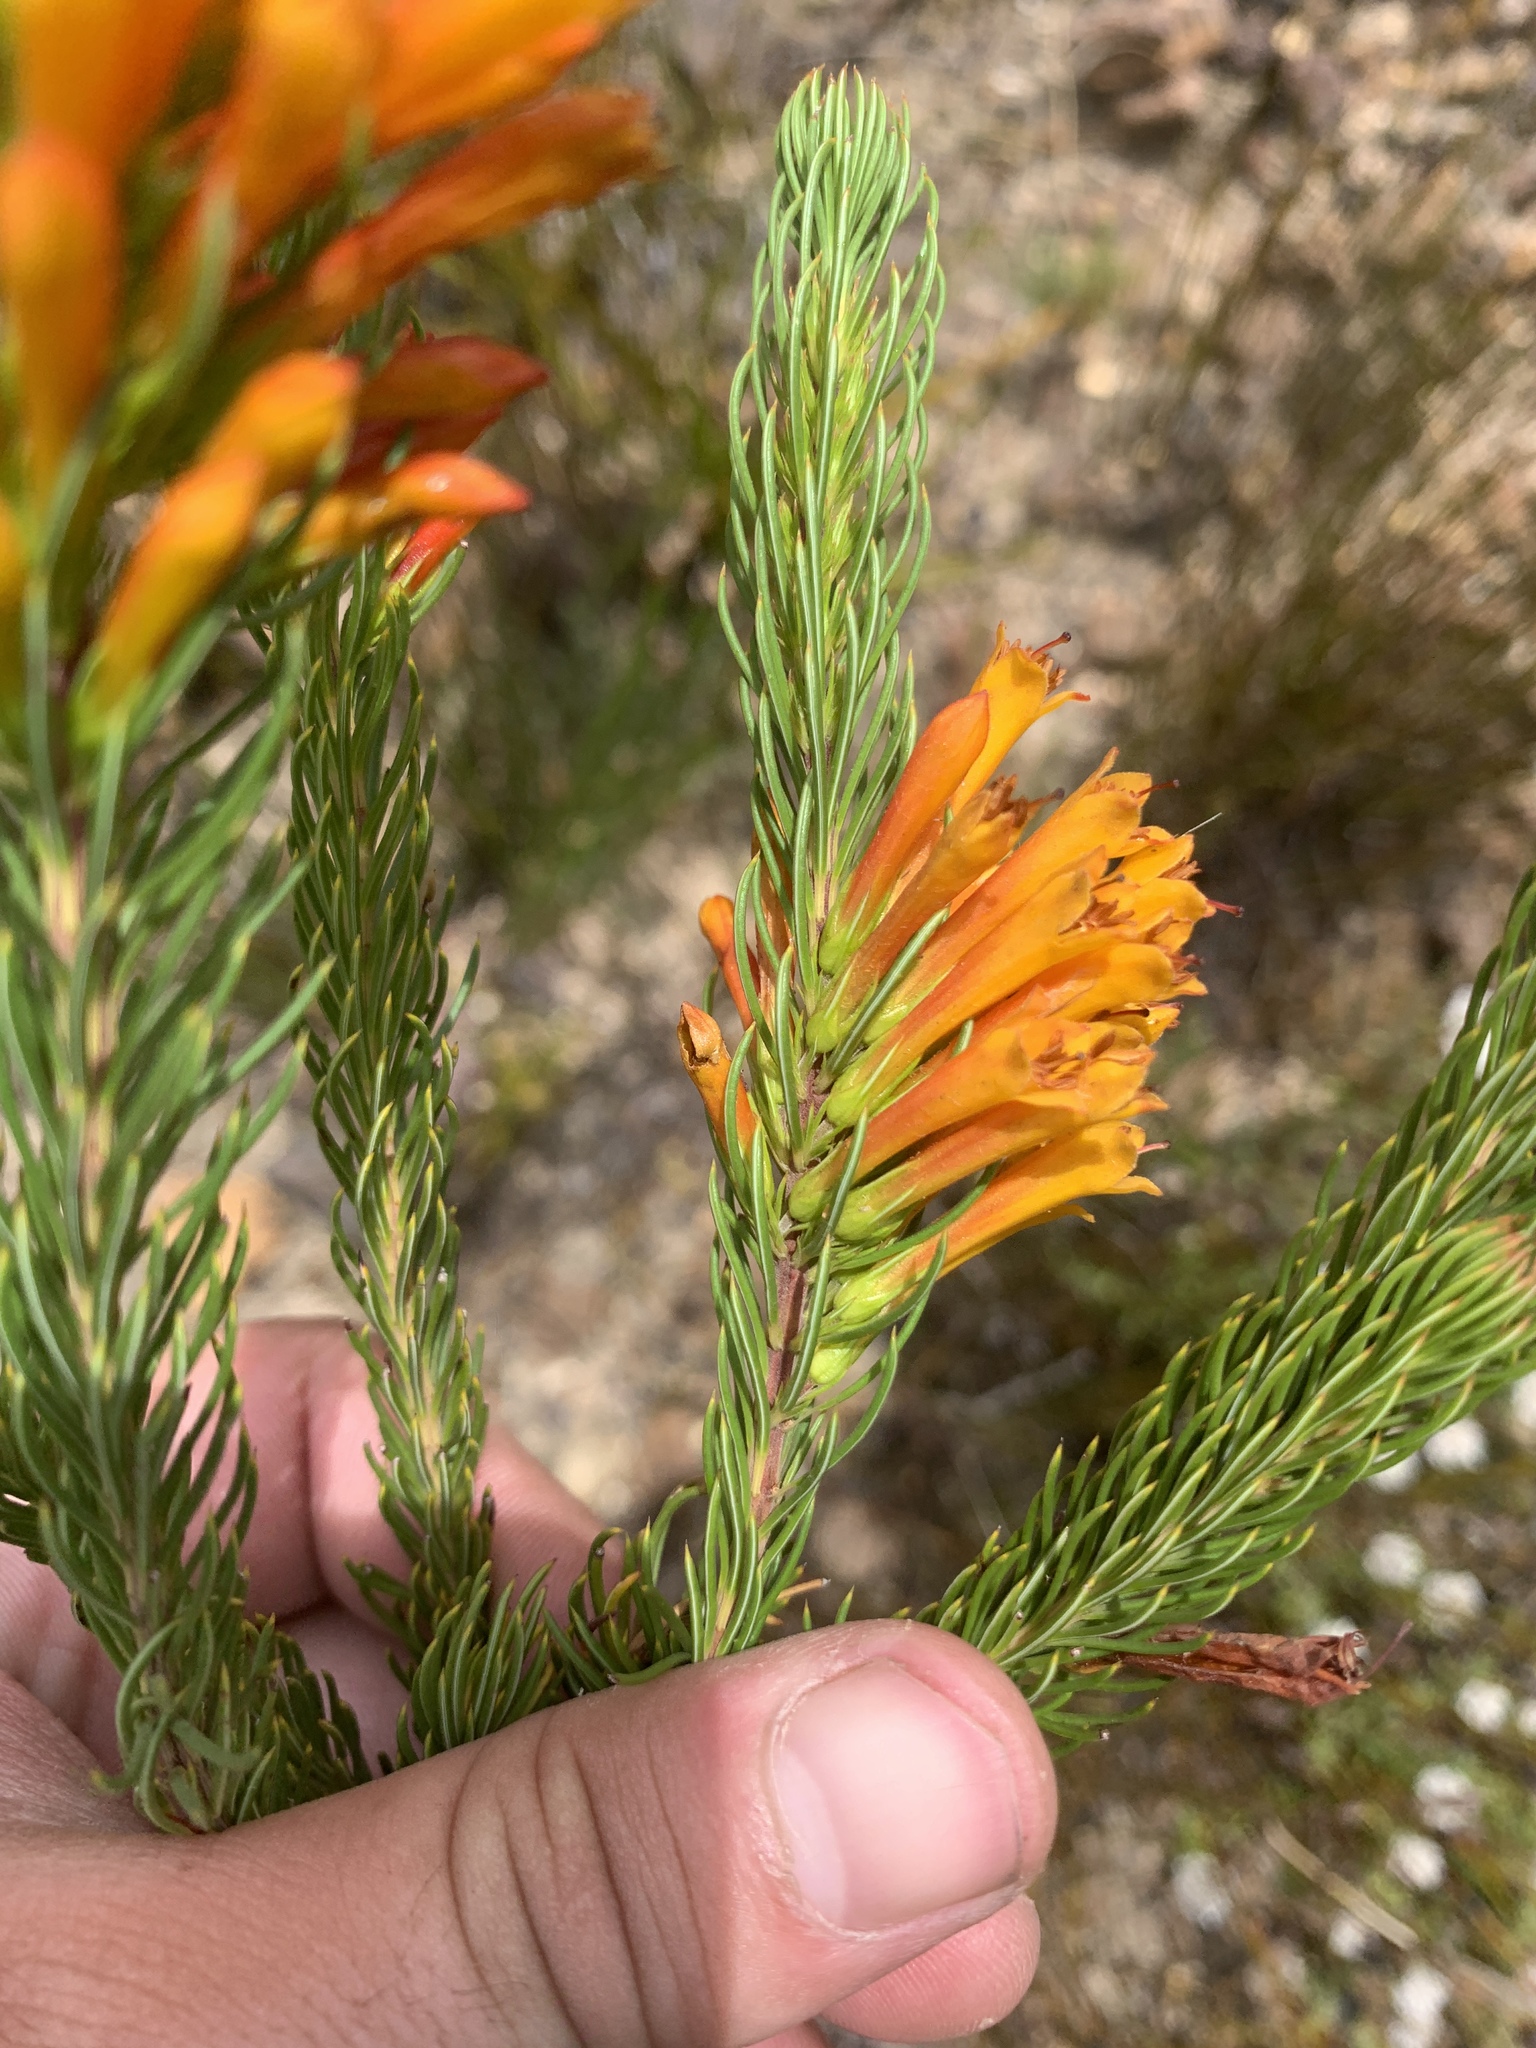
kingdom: Plantae
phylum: Tracheophyta
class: Magnoliopsida
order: Ericales
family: Ericaceae
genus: Erica
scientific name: Erica grandiflora
